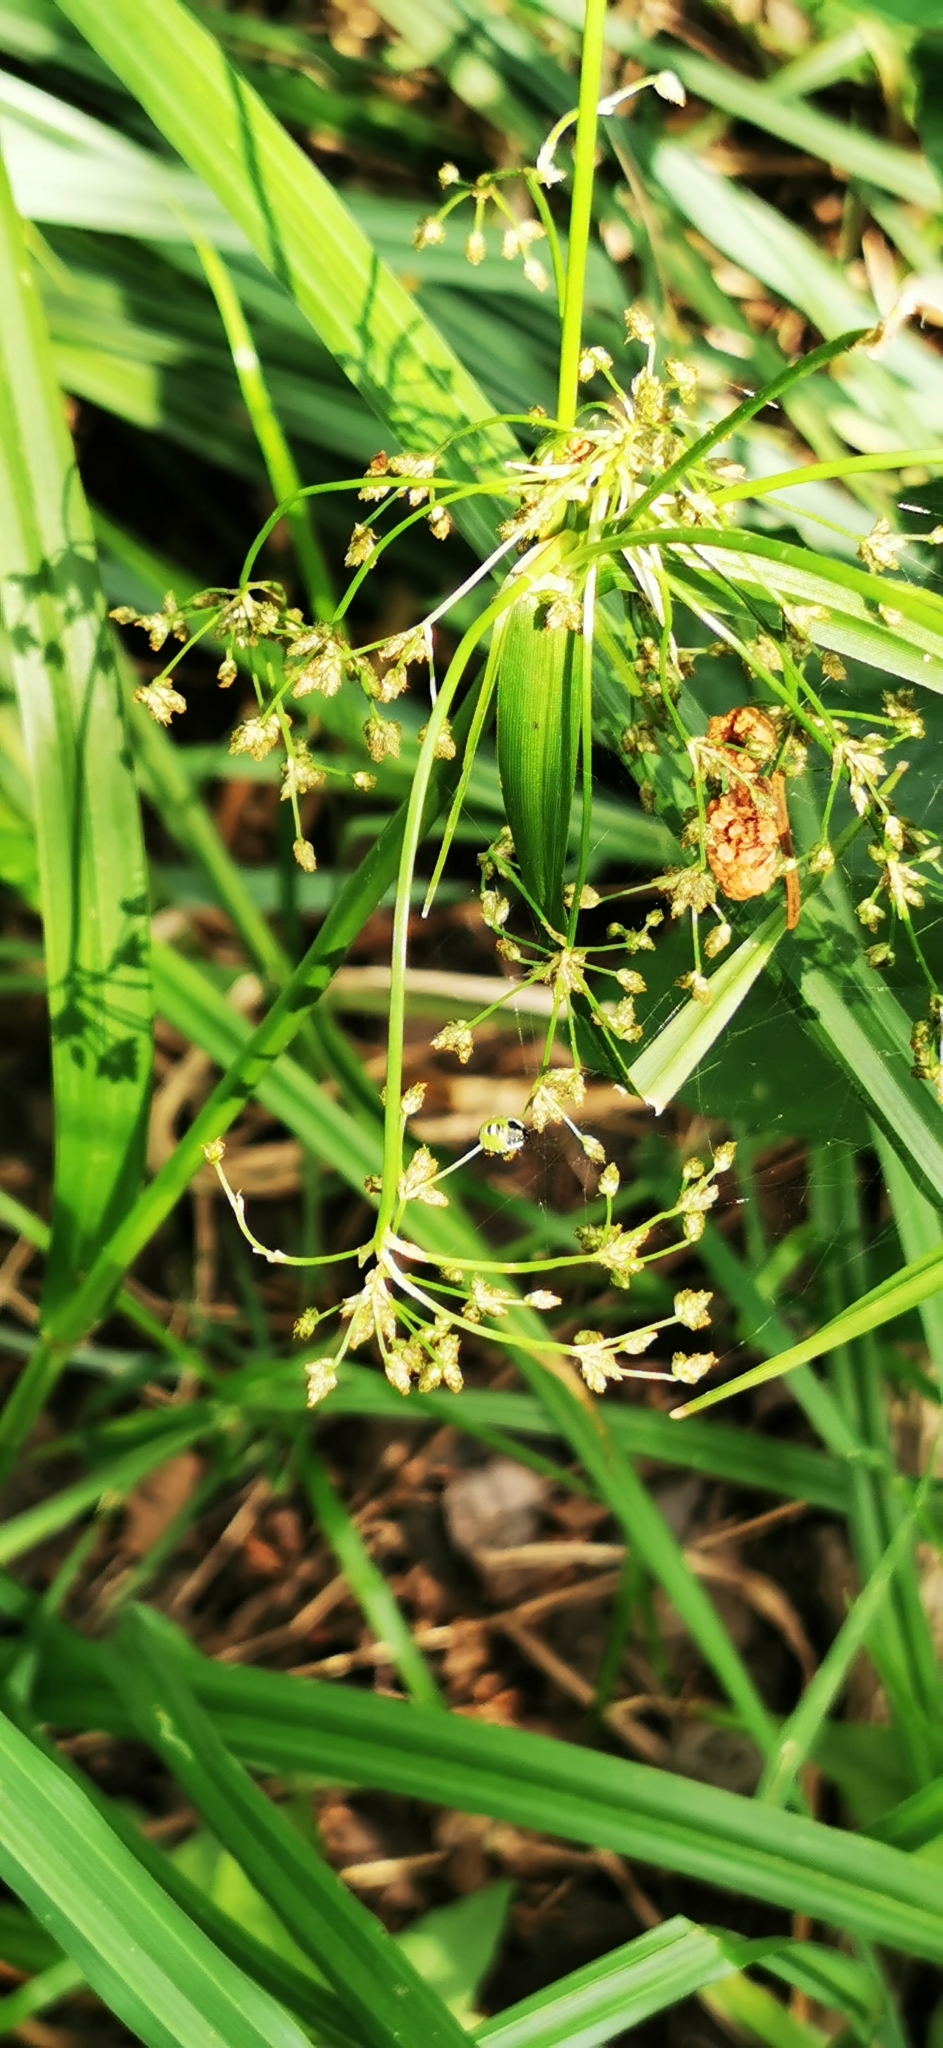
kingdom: Plantae
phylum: Tracheophyta
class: Liliopsida
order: Poales
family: Cyperaceae
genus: Scirpus
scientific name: Scirpus sylvaticus
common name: Wood club-rush
